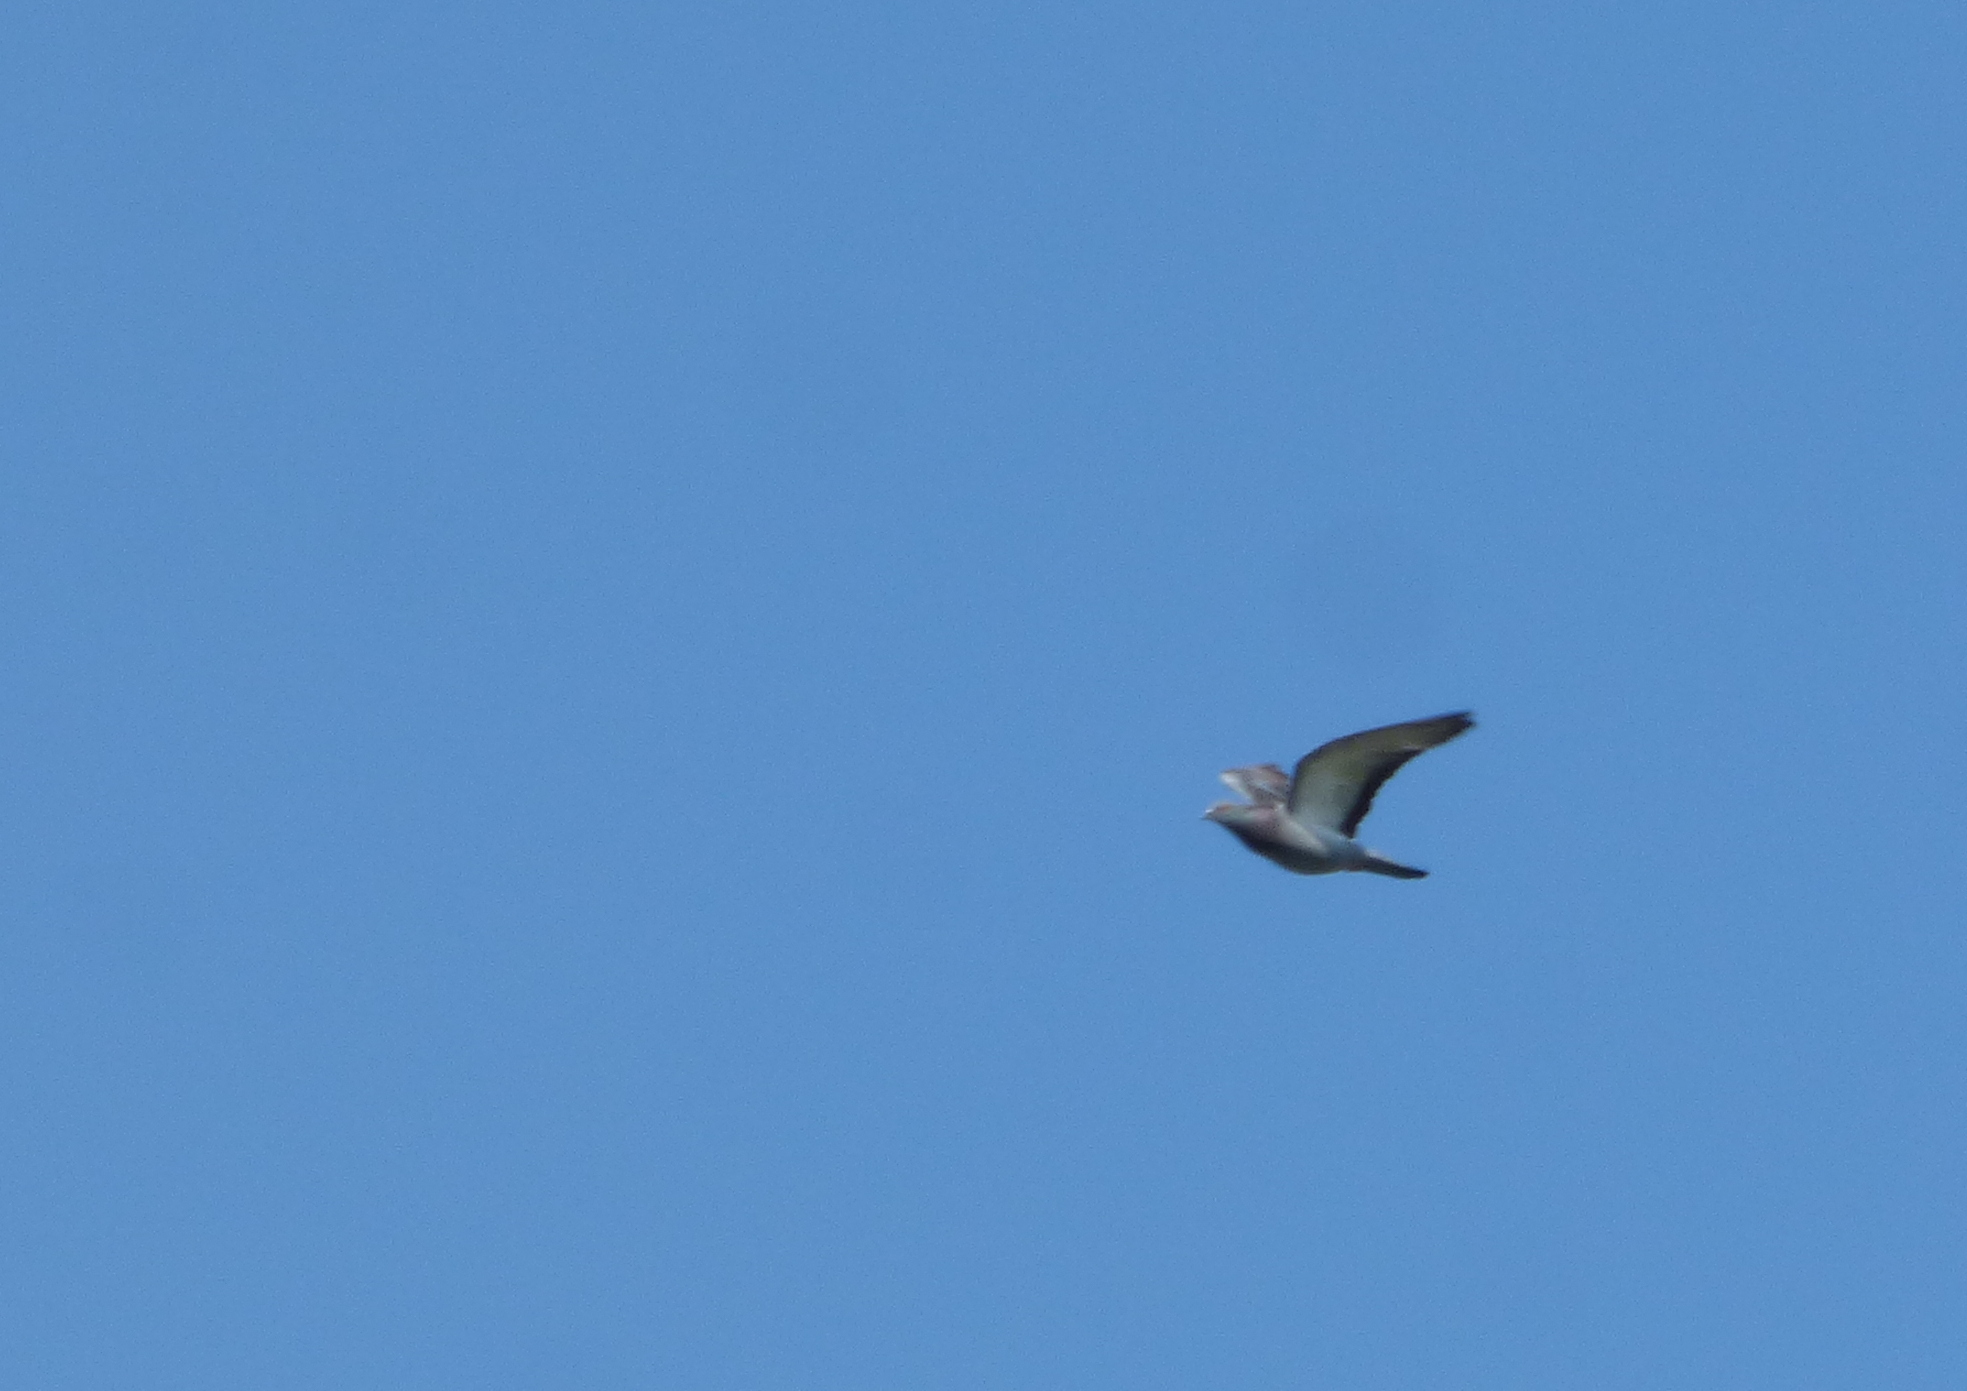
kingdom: Animalia
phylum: Chordata
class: Aves
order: Columbiformes
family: Columbidae
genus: Columba
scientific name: Columba livia
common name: Rock pigeon
